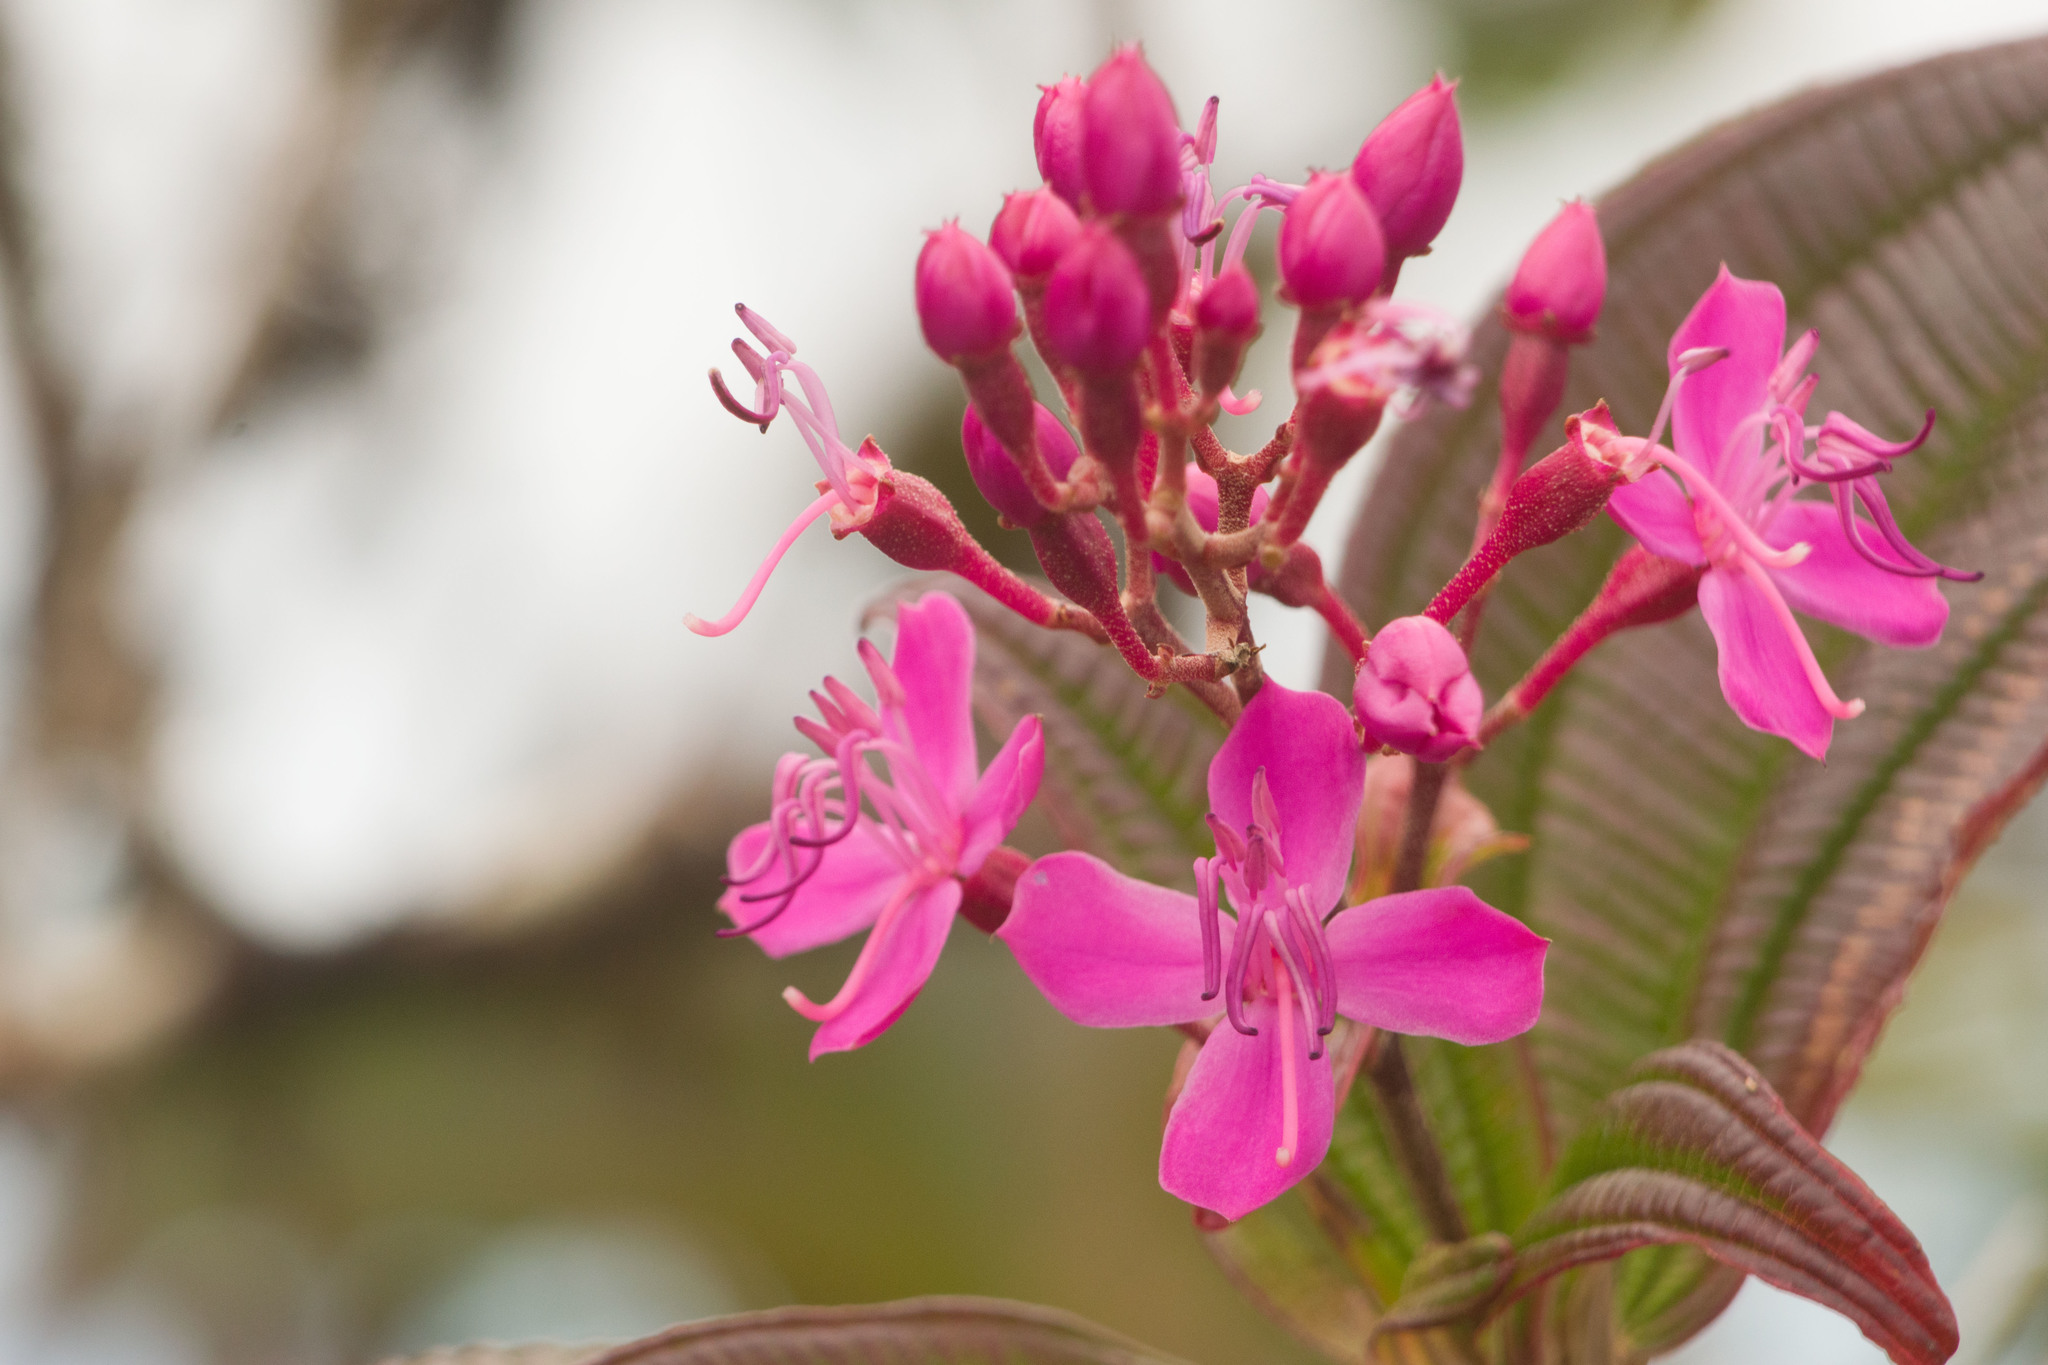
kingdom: Plantae
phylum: Tracheophyta
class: Magnoliopsida
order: Myrtales
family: Melastomataceae
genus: Oxyspora
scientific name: Oxyspora paniculata
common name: Bristletips
